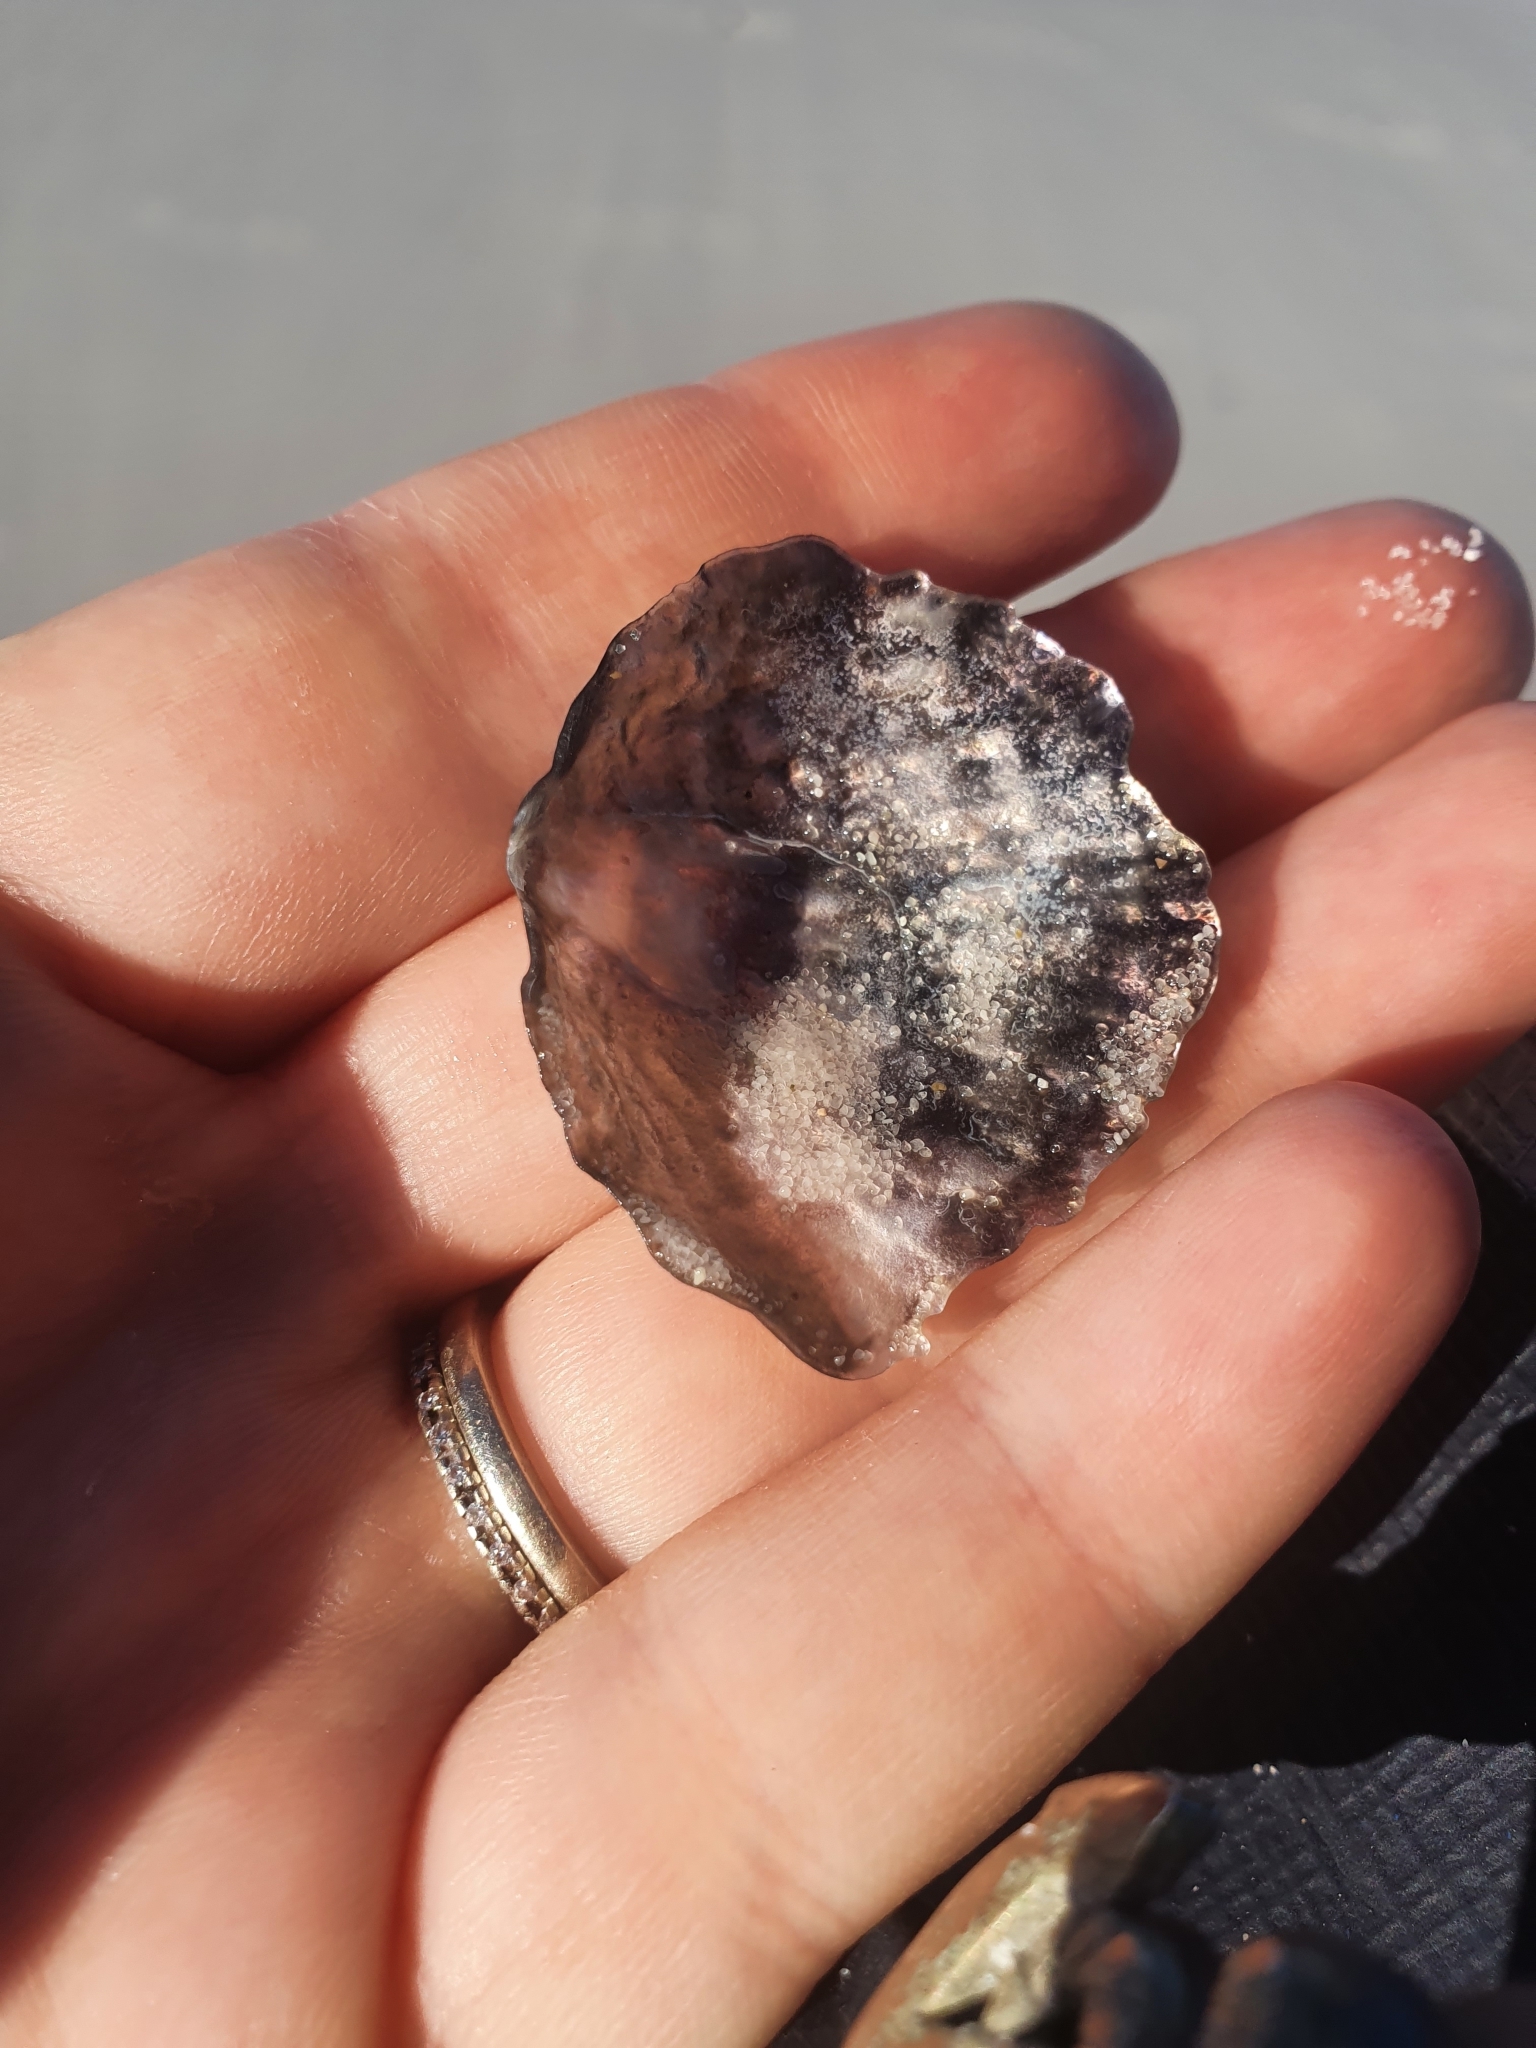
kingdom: Animalia
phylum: Mollusca
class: Bivalvia
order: Pectinida
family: Anomiidae
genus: Anomia
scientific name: Anomia trigonopsis
